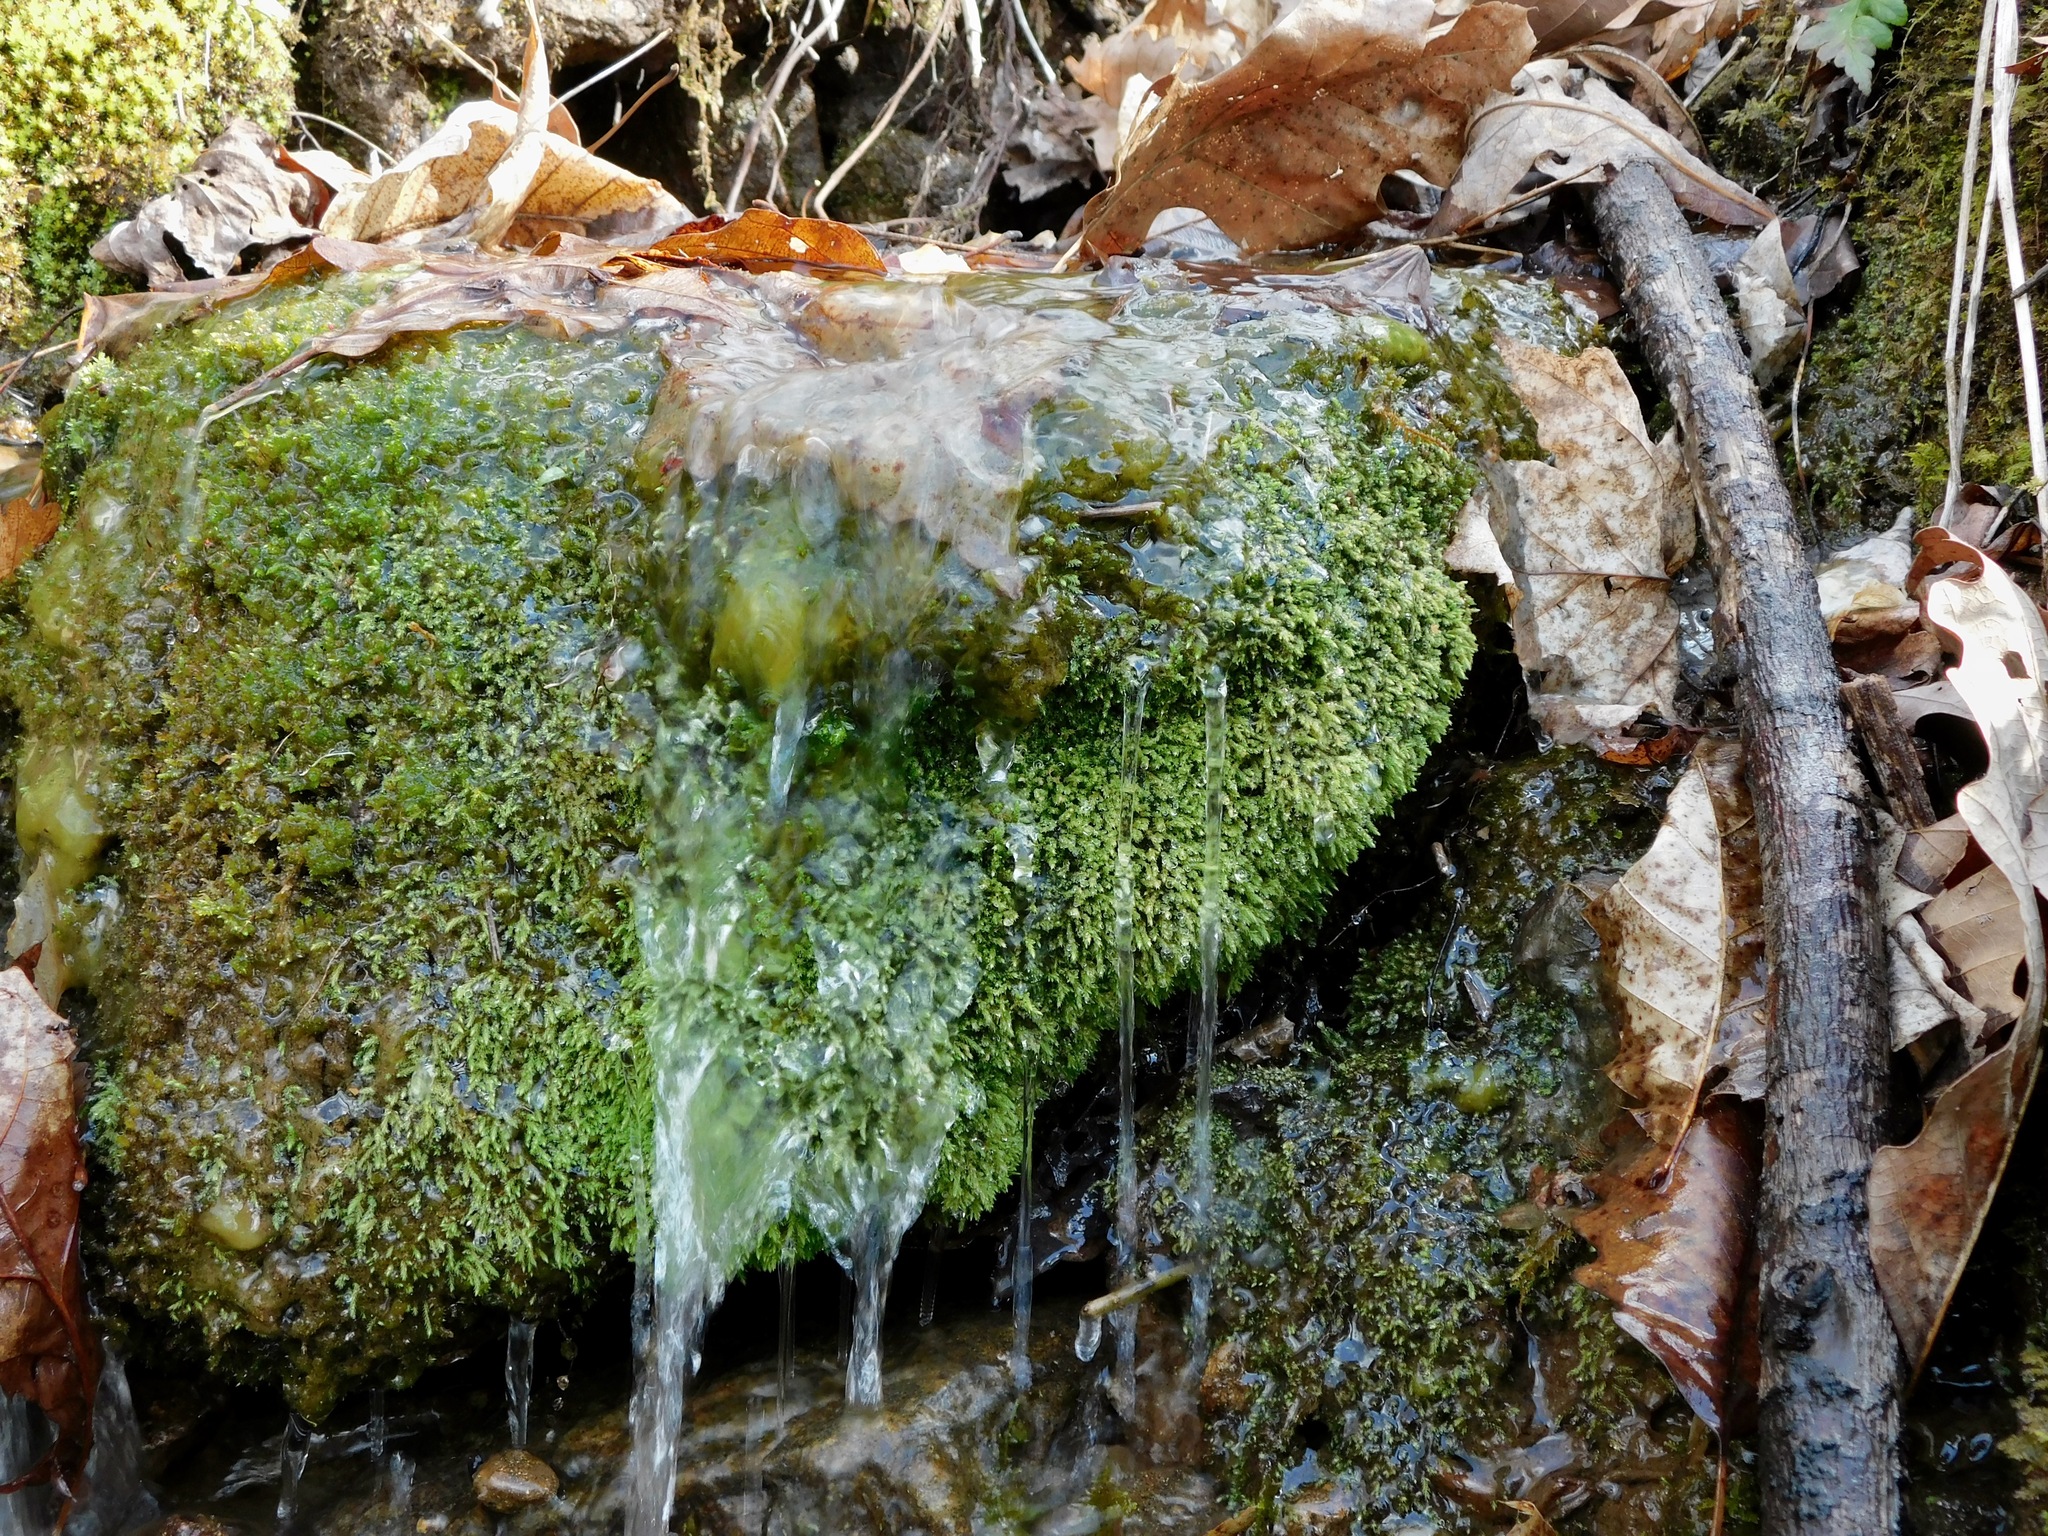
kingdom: Plantae
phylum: Bryophyta
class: Bryopsida
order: Bartramiales
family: Bartramiaceae
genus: Philonotis
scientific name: Philonotis capillaris
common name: Arnell's apple-moss
